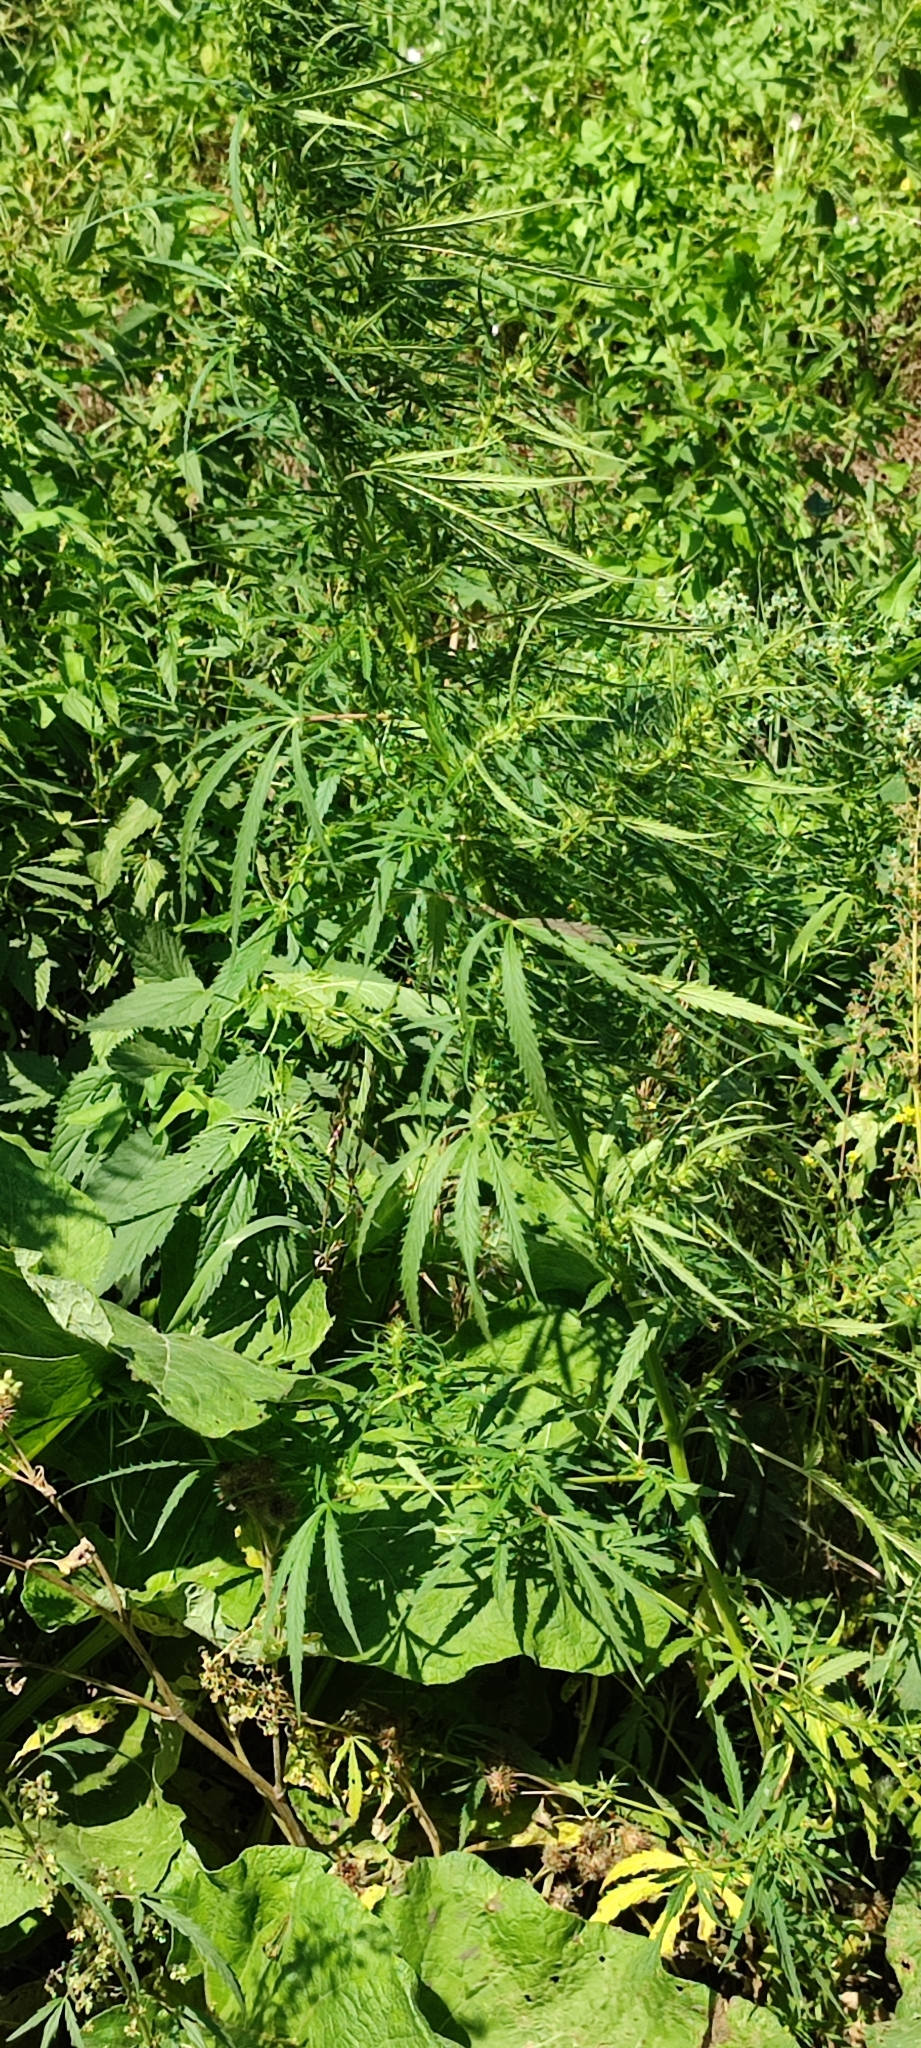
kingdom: Plantae
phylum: Tracheophyta
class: Magnoliopsida
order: Rosales
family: Cannabaceae
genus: Cannabis
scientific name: Cannabis sativa
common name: Hemp
